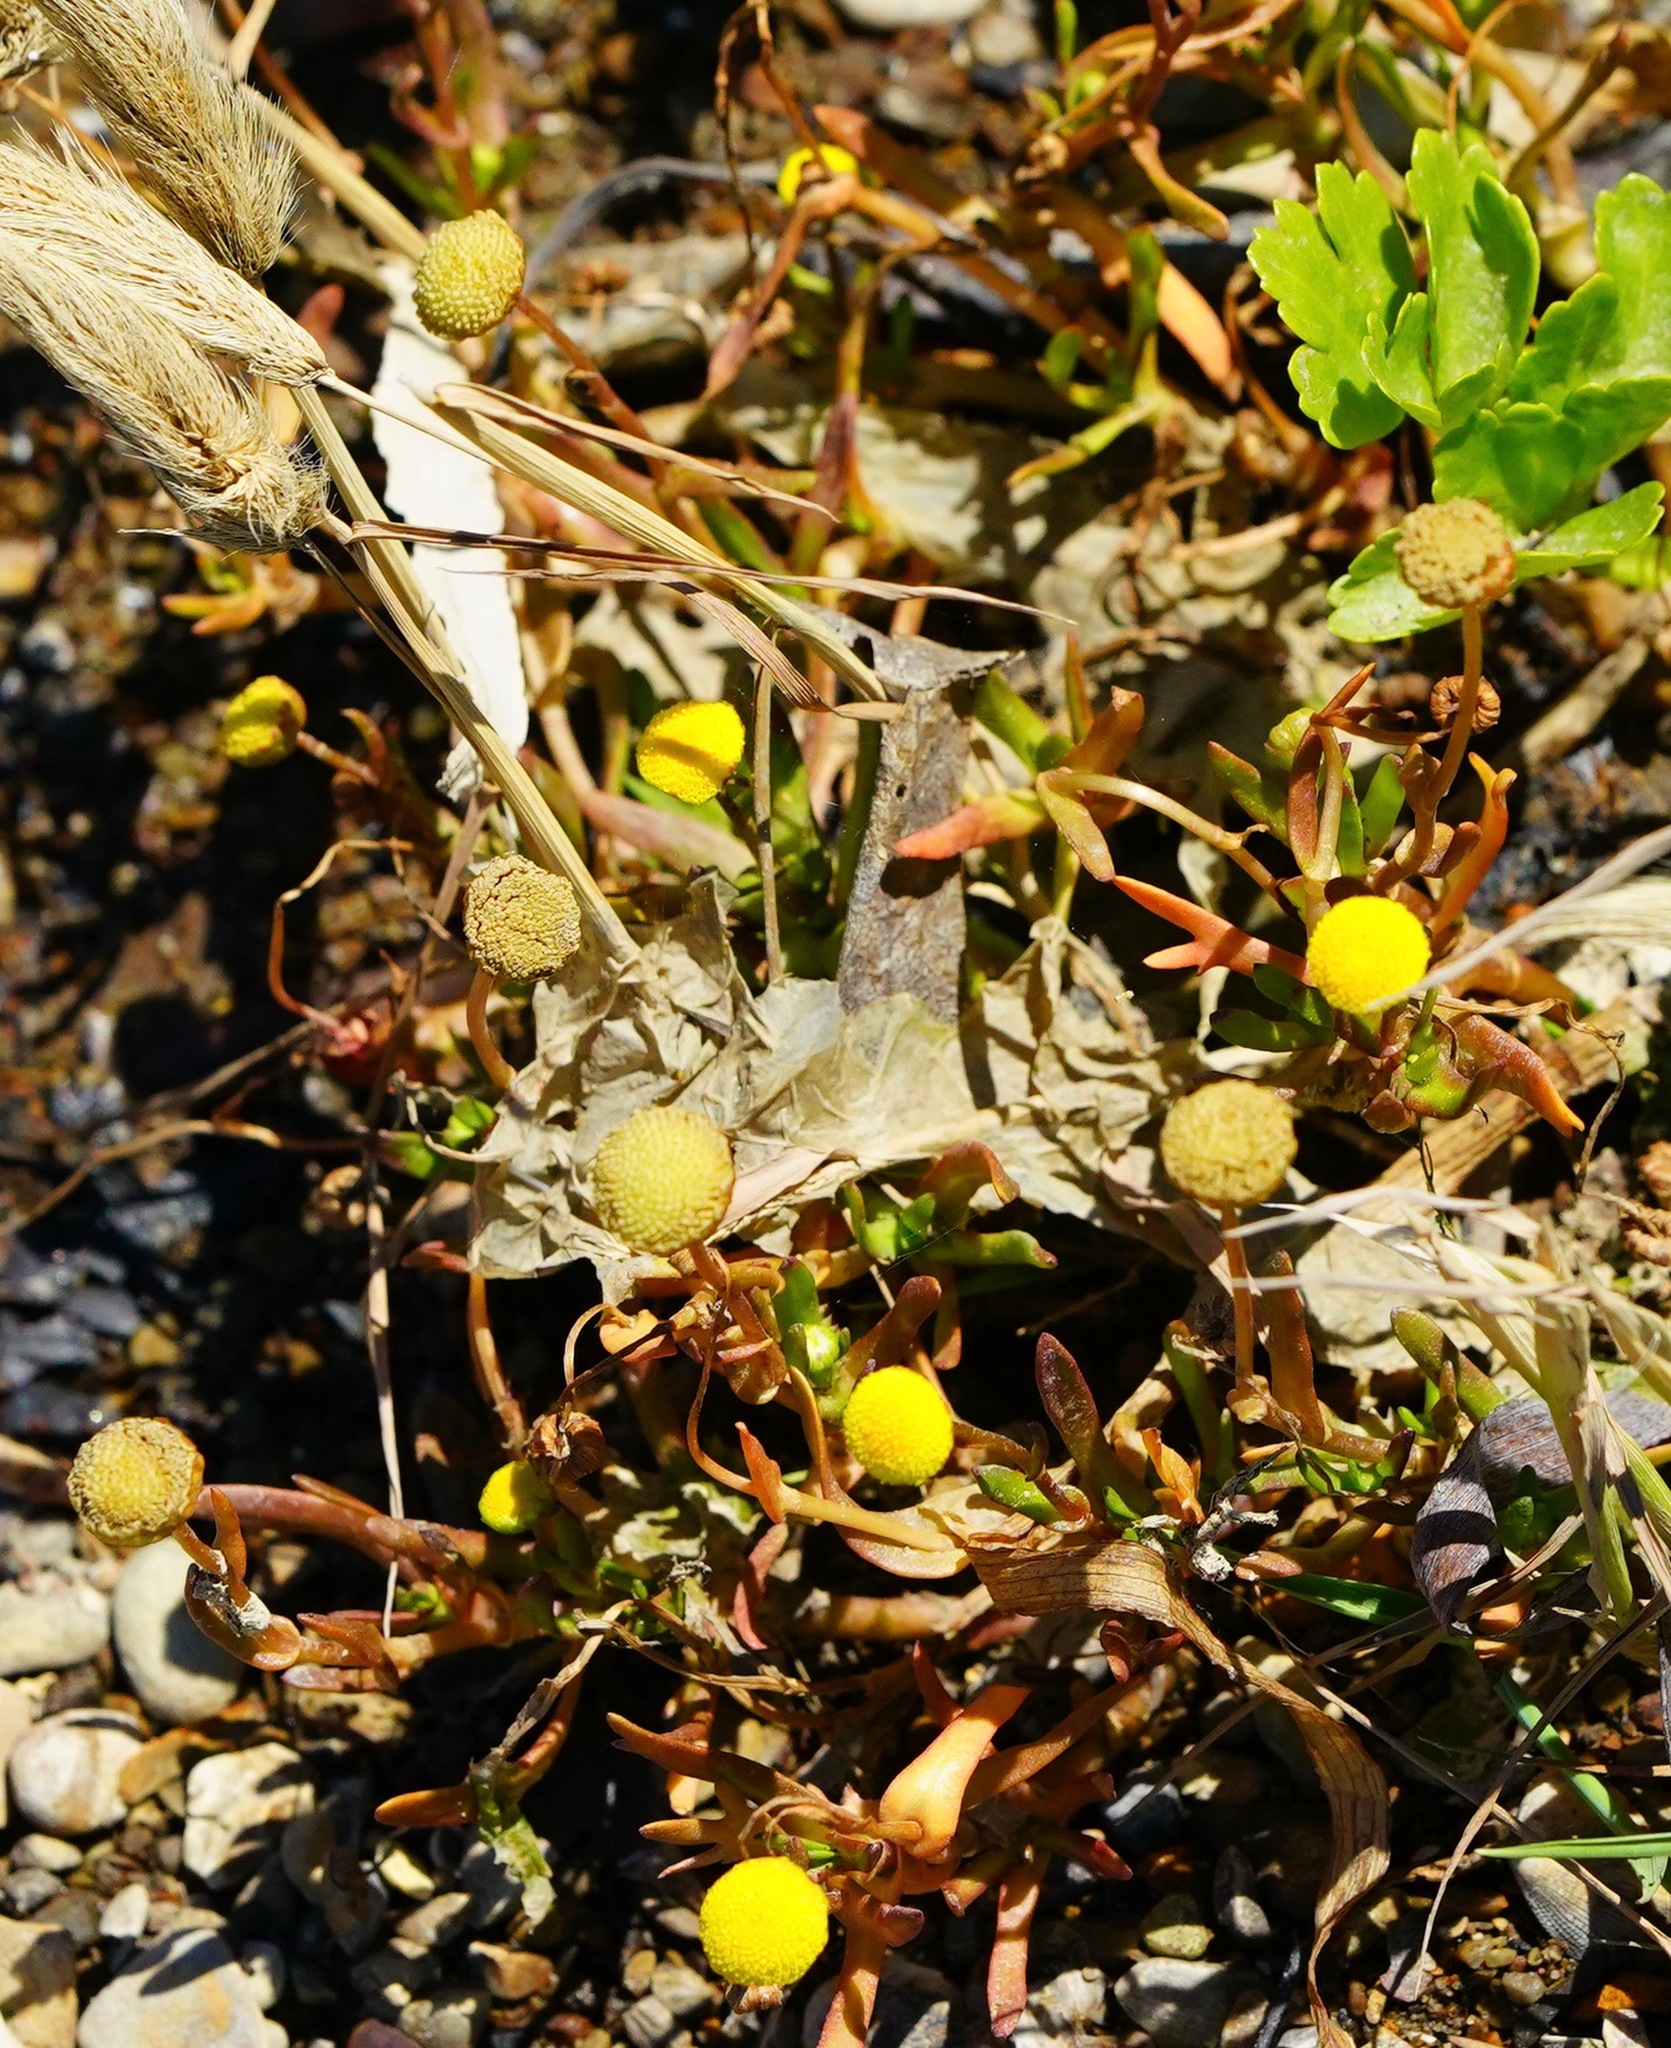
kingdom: Plantae
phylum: Tracheophyta
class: Magnoliopsida
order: Asterales
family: Asteraceae
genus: Cotula
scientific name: Cotula coronopifolia
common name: Buttonweed
